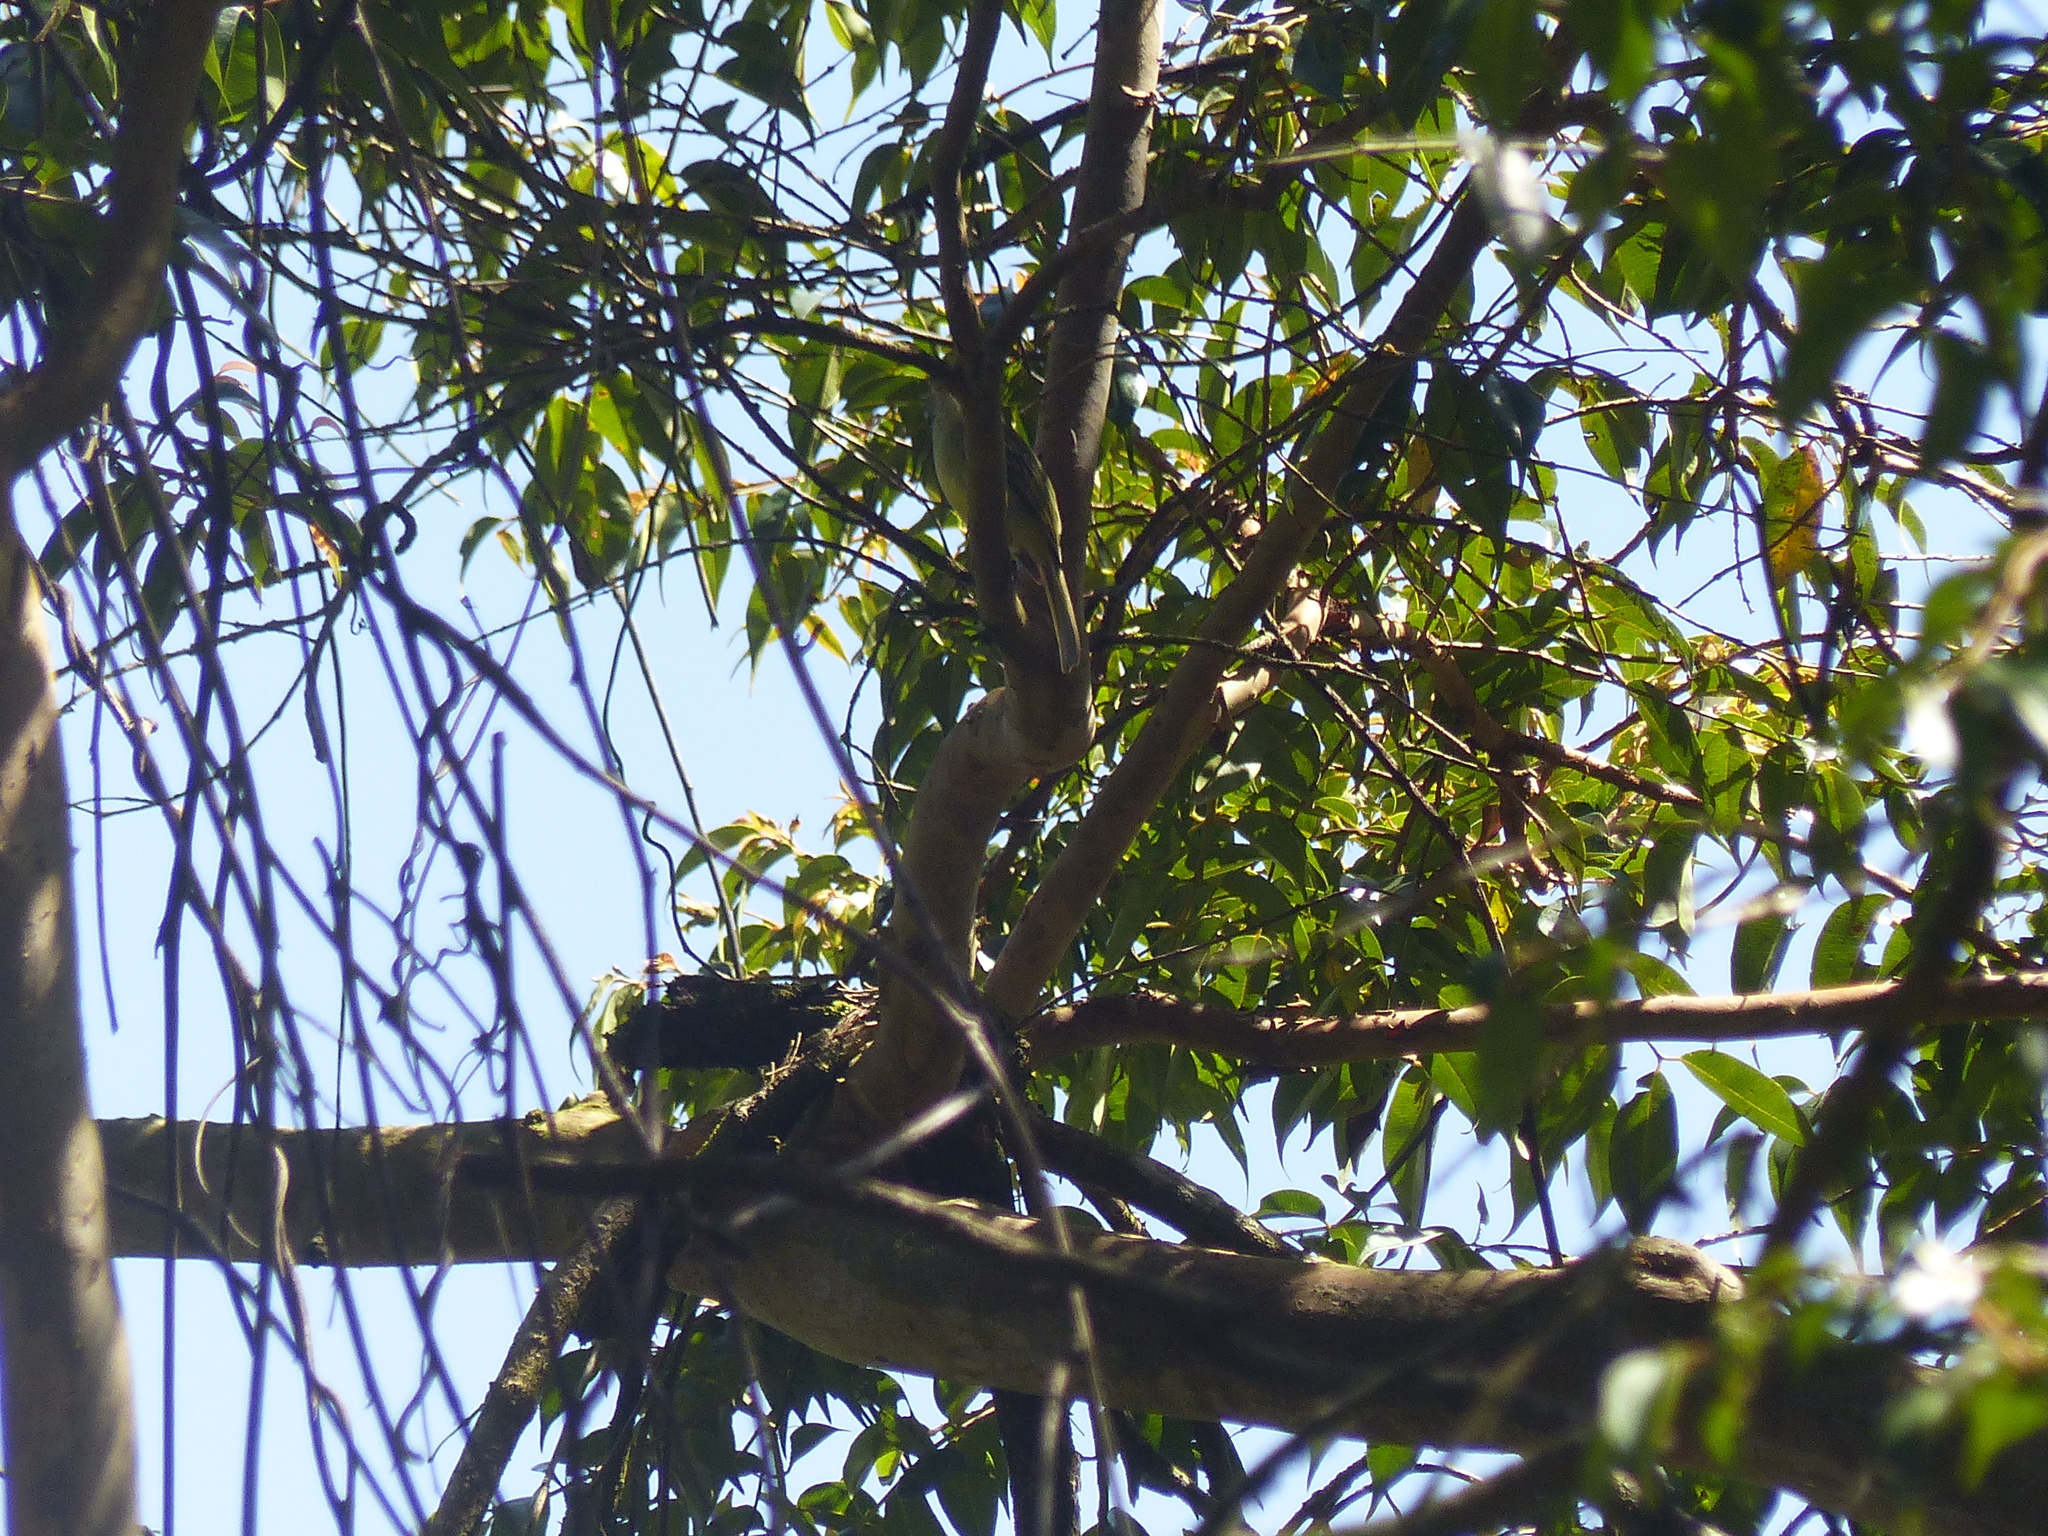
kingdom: Animalia
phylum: Chordata
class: Aves
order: Passeriformes
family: Tyrannidae
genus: Tyrannus
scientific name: Tyrannus melancholicus
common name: Tropical kingbird
